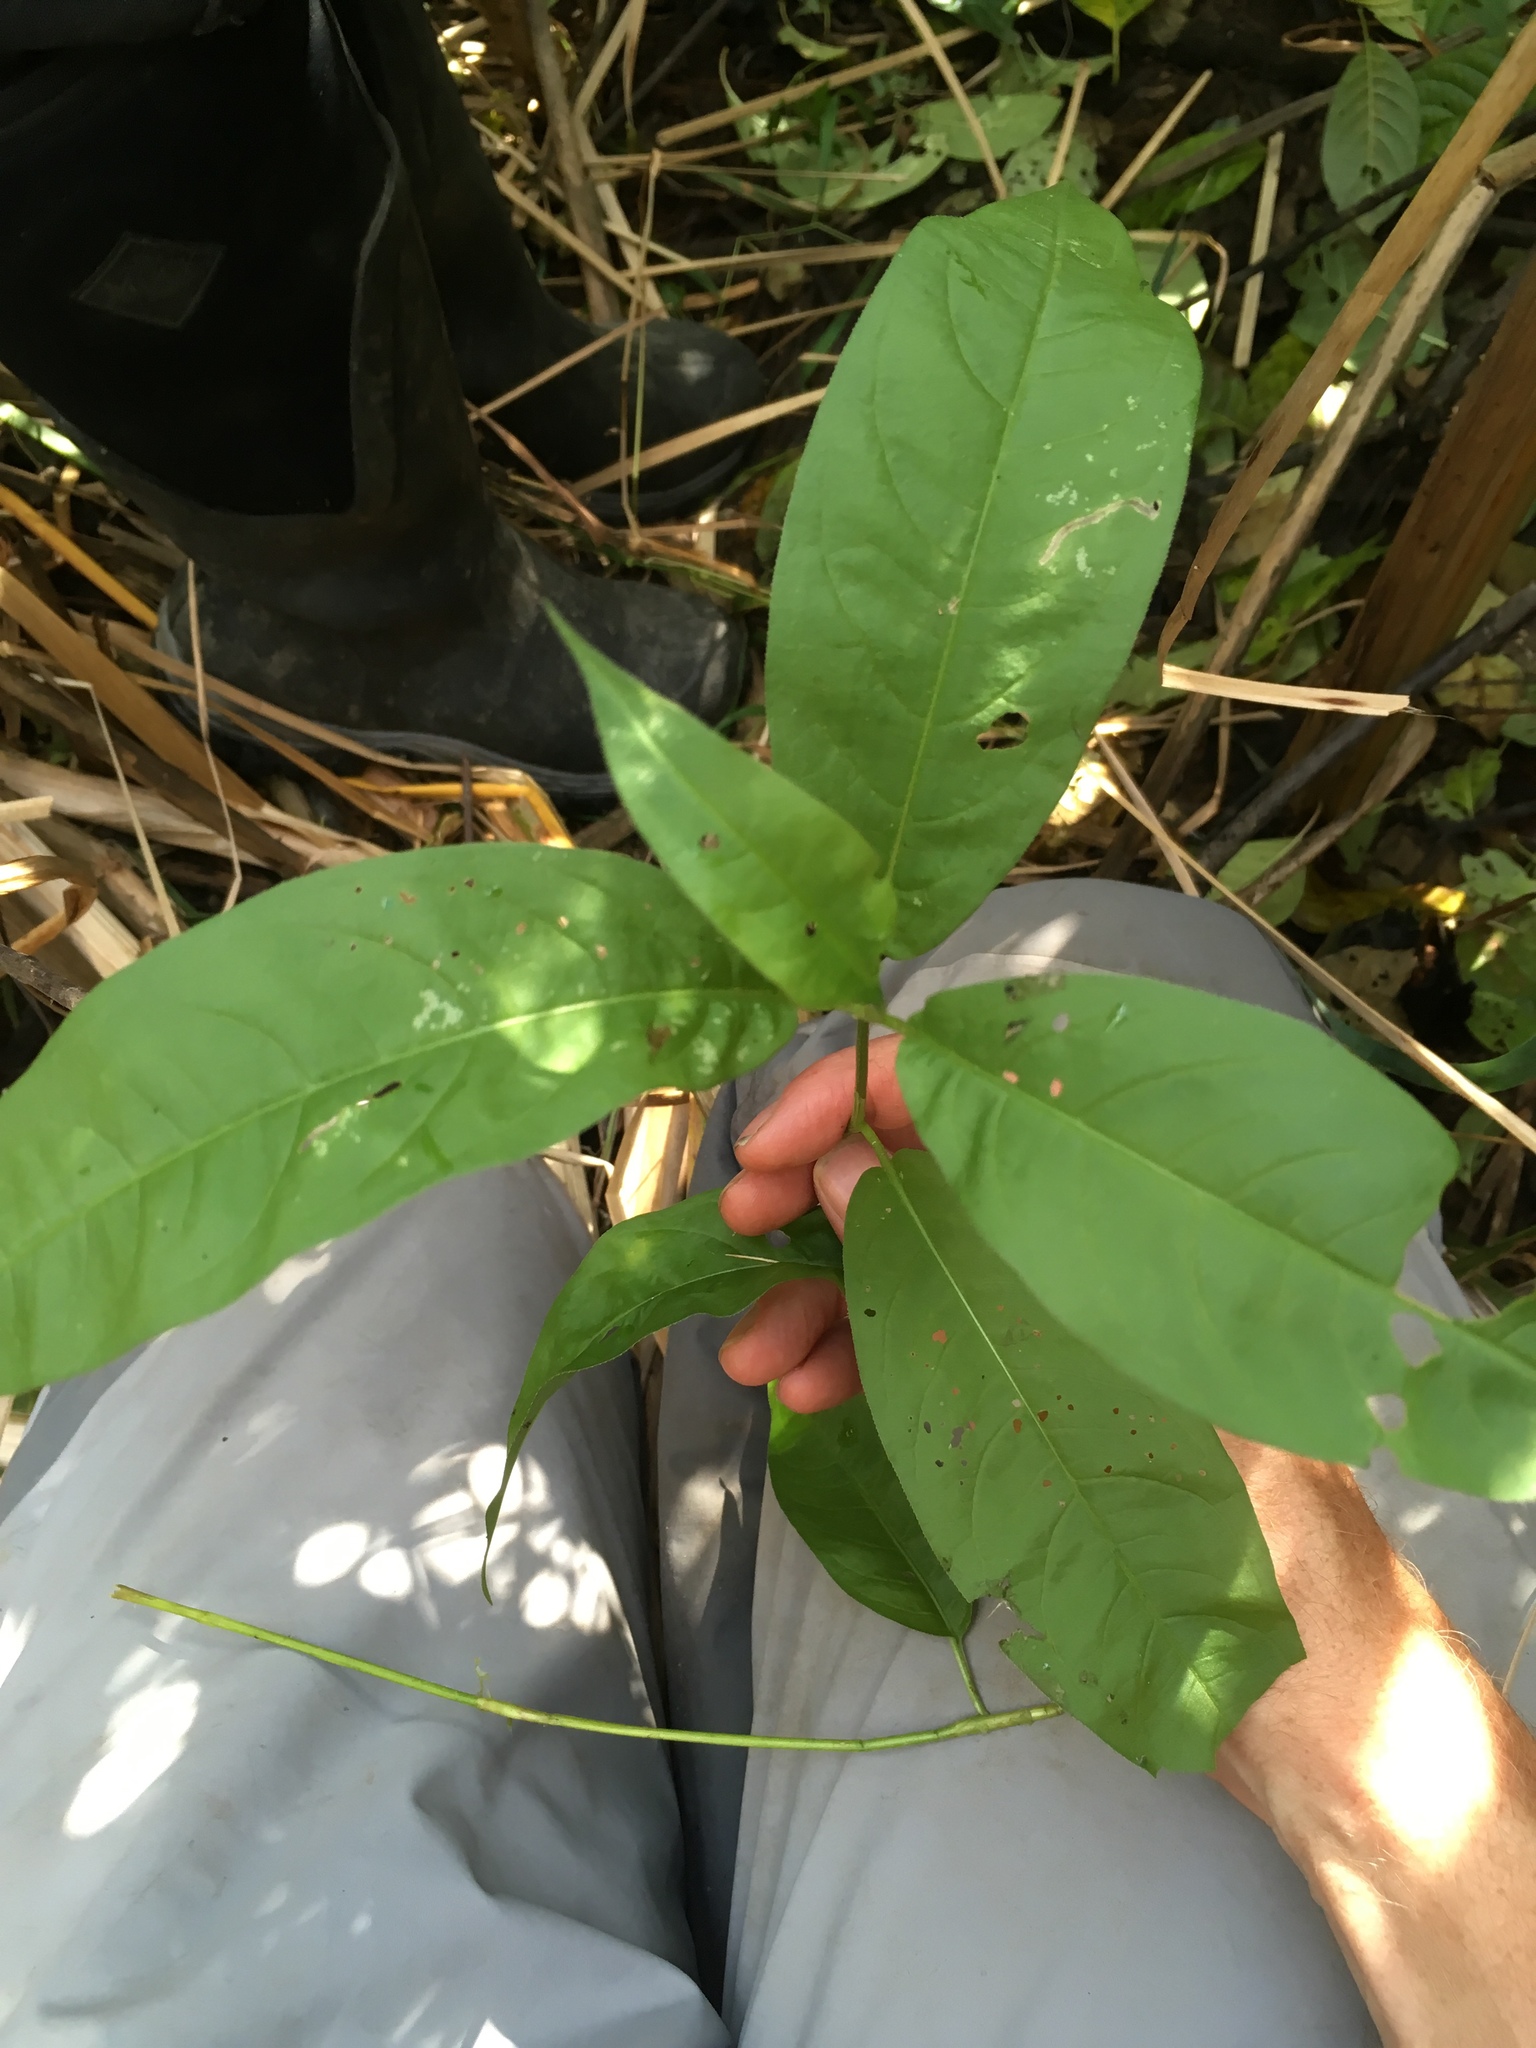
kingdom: Plantae
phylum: Tracheophyta
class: Magnoliopsida
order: Caryophyllales
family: Polygonaceae
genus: Persicaria
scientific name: Persicaria amphibia
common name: Amphibious bistort
